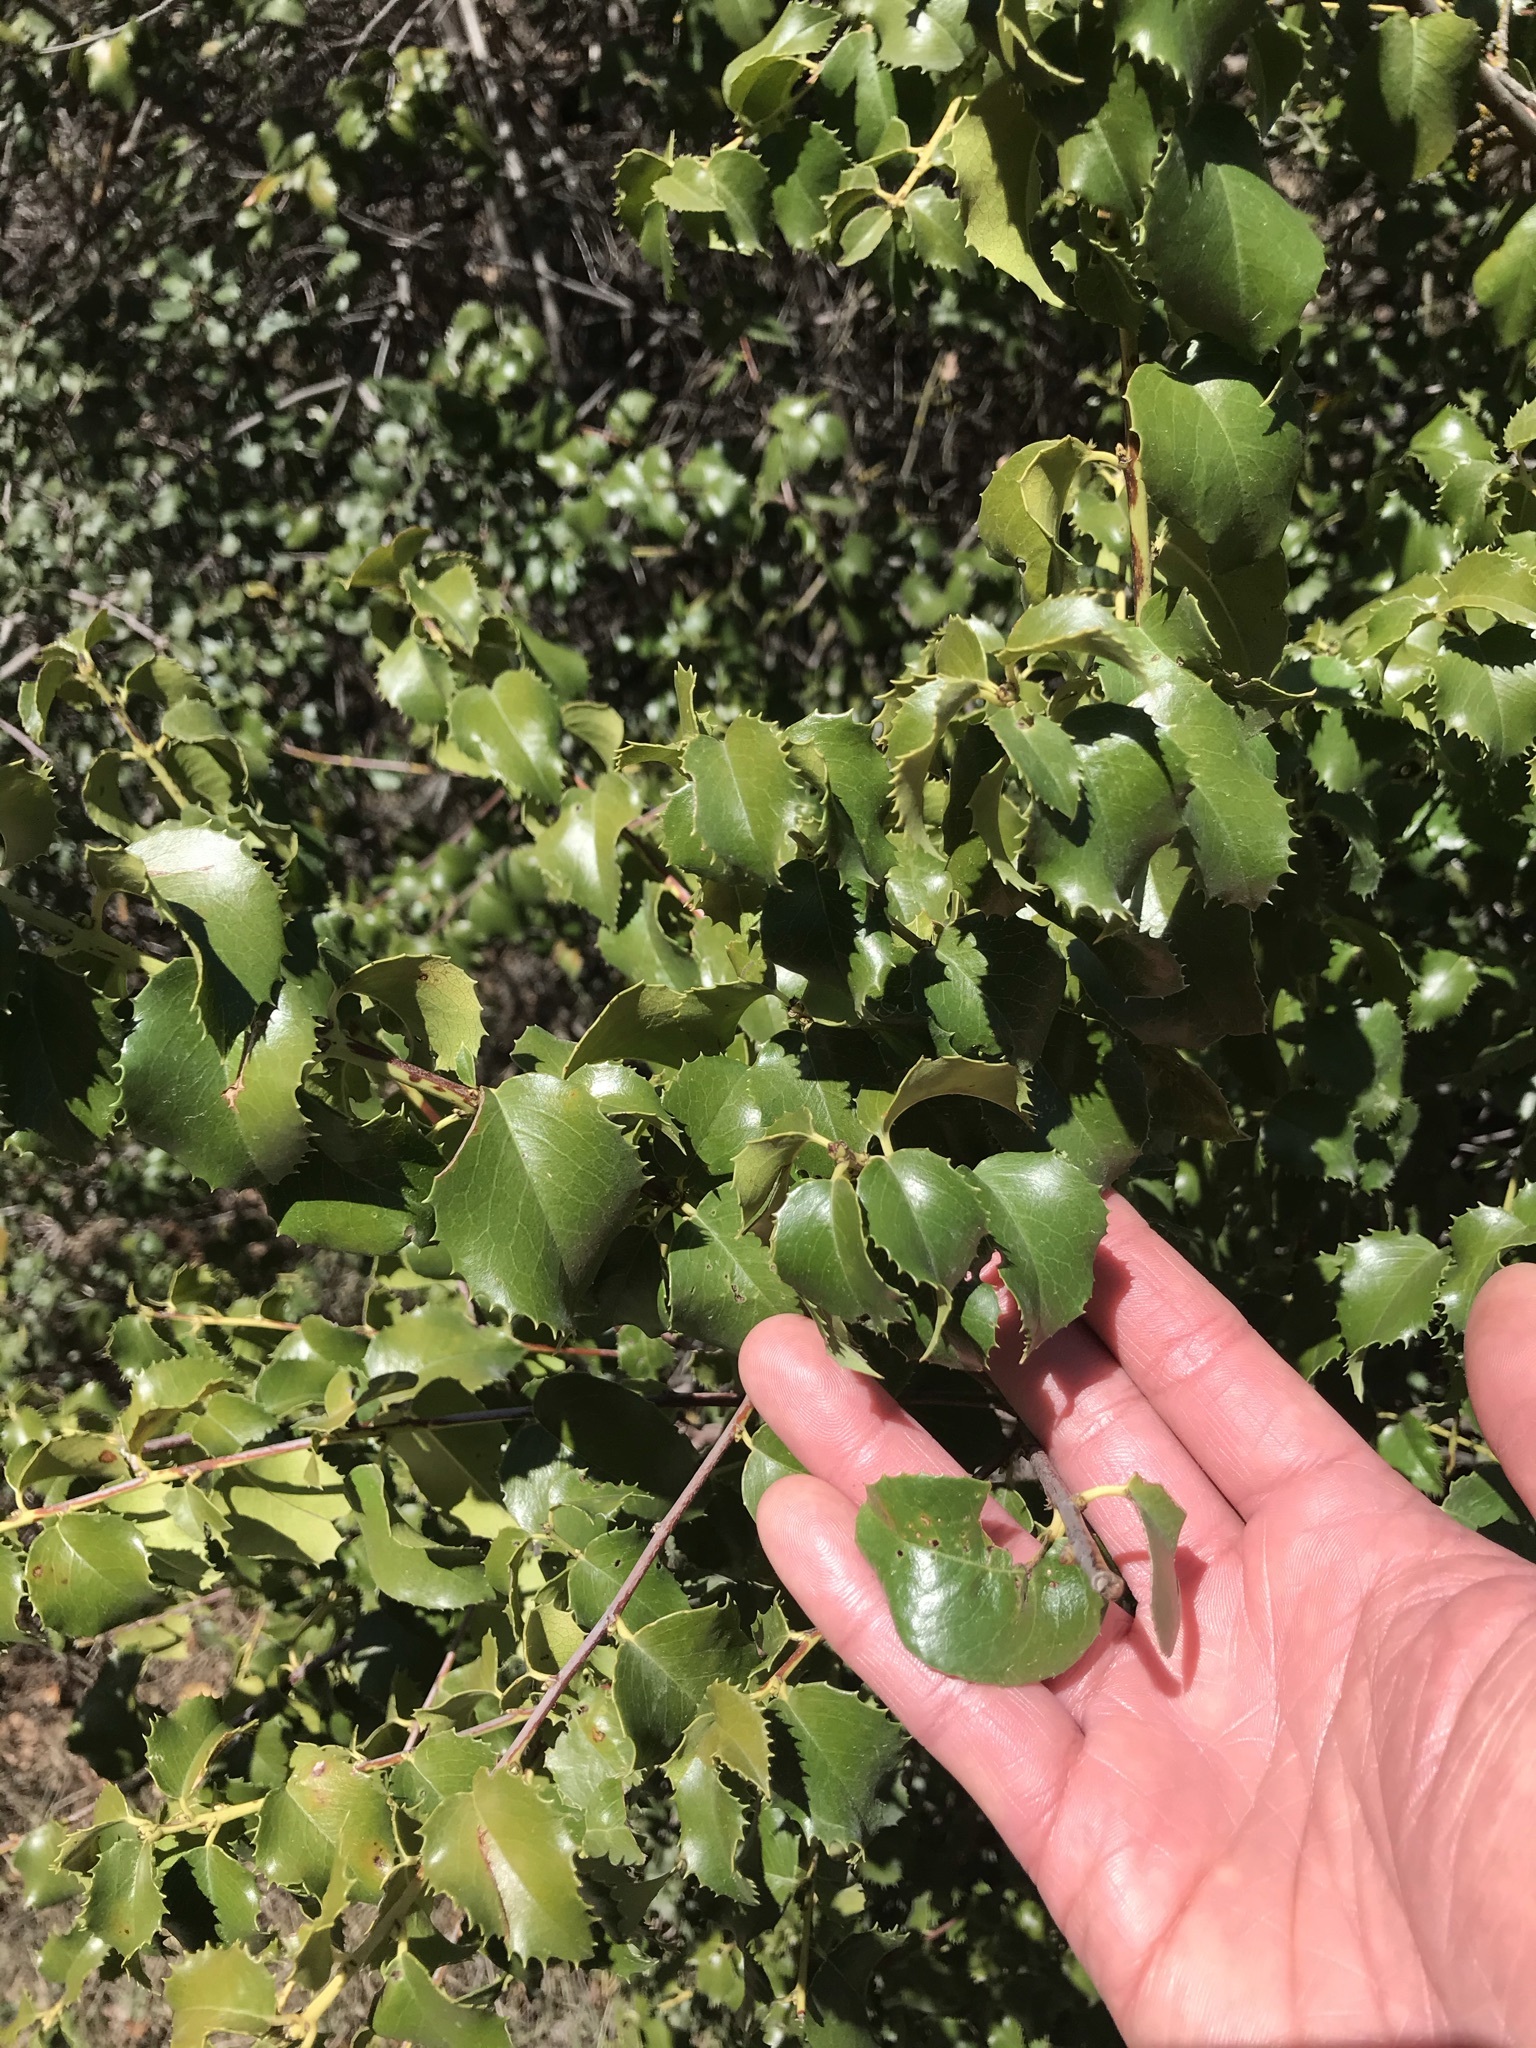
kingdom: Plantae
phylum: Tracheophyta
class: Magnoliopsida
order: Rosales
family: Rosaceae
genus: Prunus
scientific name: Prunus ilicifolia
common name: Hollyleaf cherry
